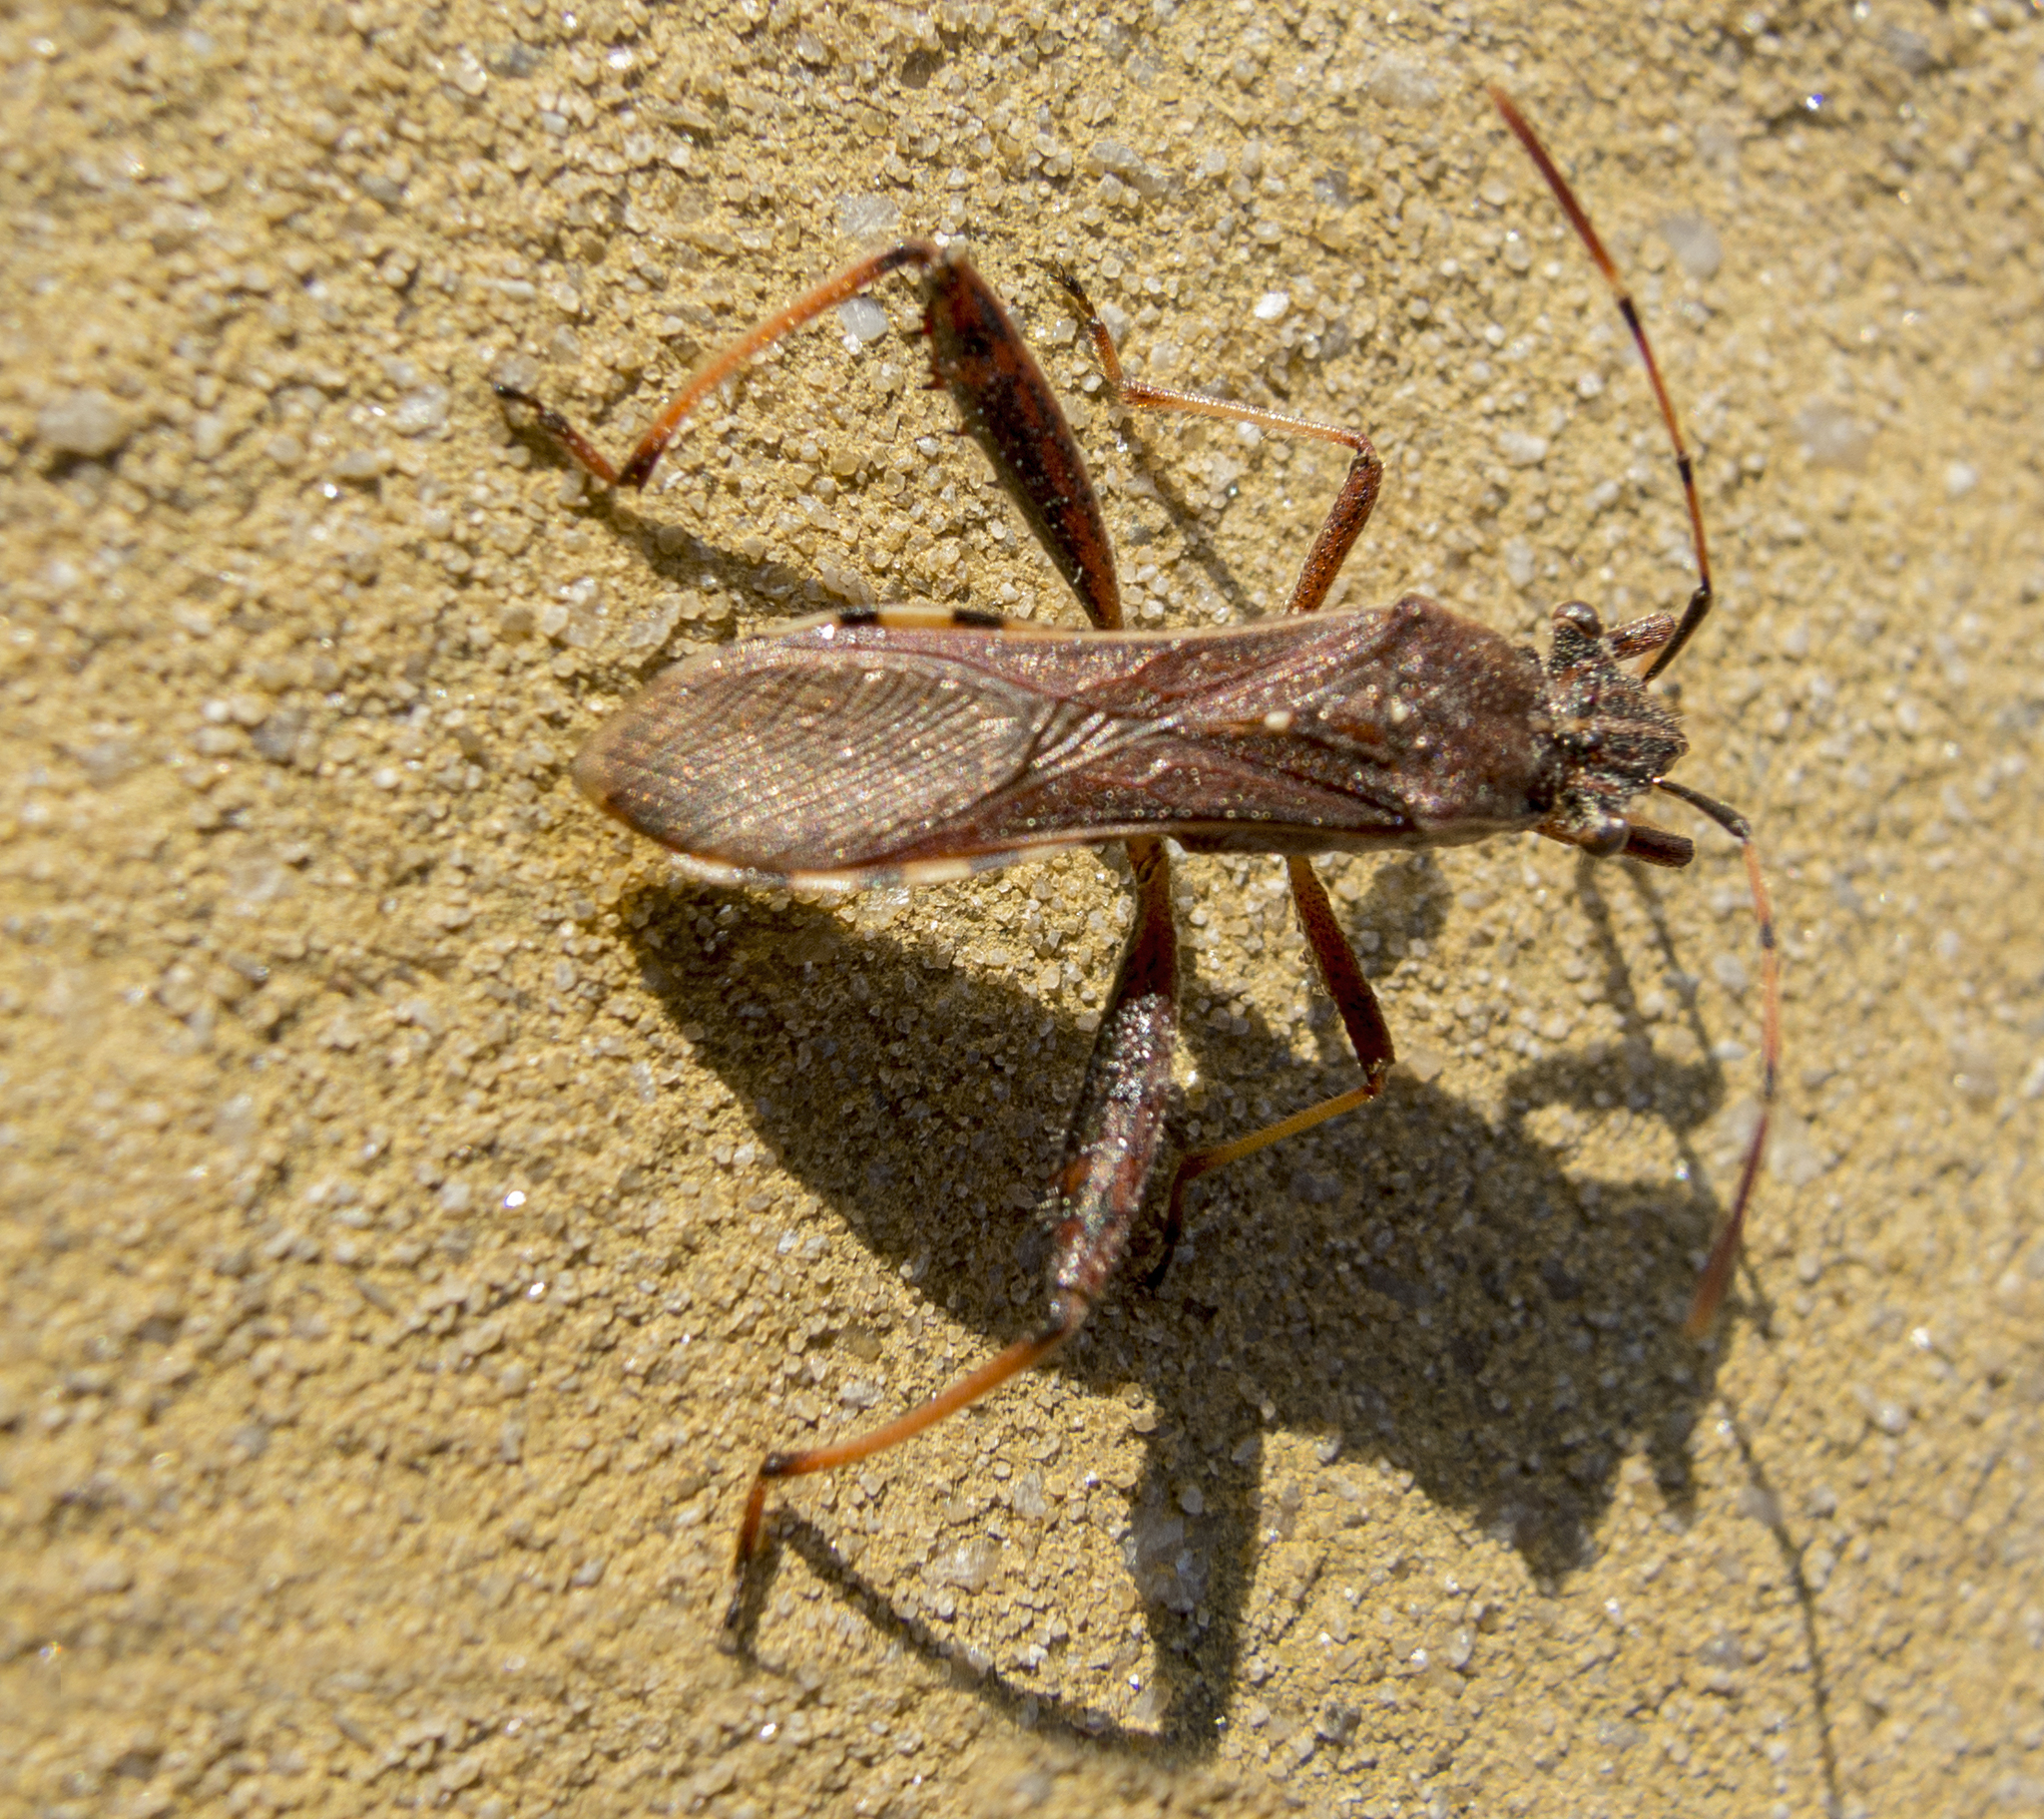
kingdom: Animalia
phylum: Arthropoda
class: Insecta
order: Hemiptera
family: Alydidae
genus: Camptopus
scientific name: Camptopus lateralis
